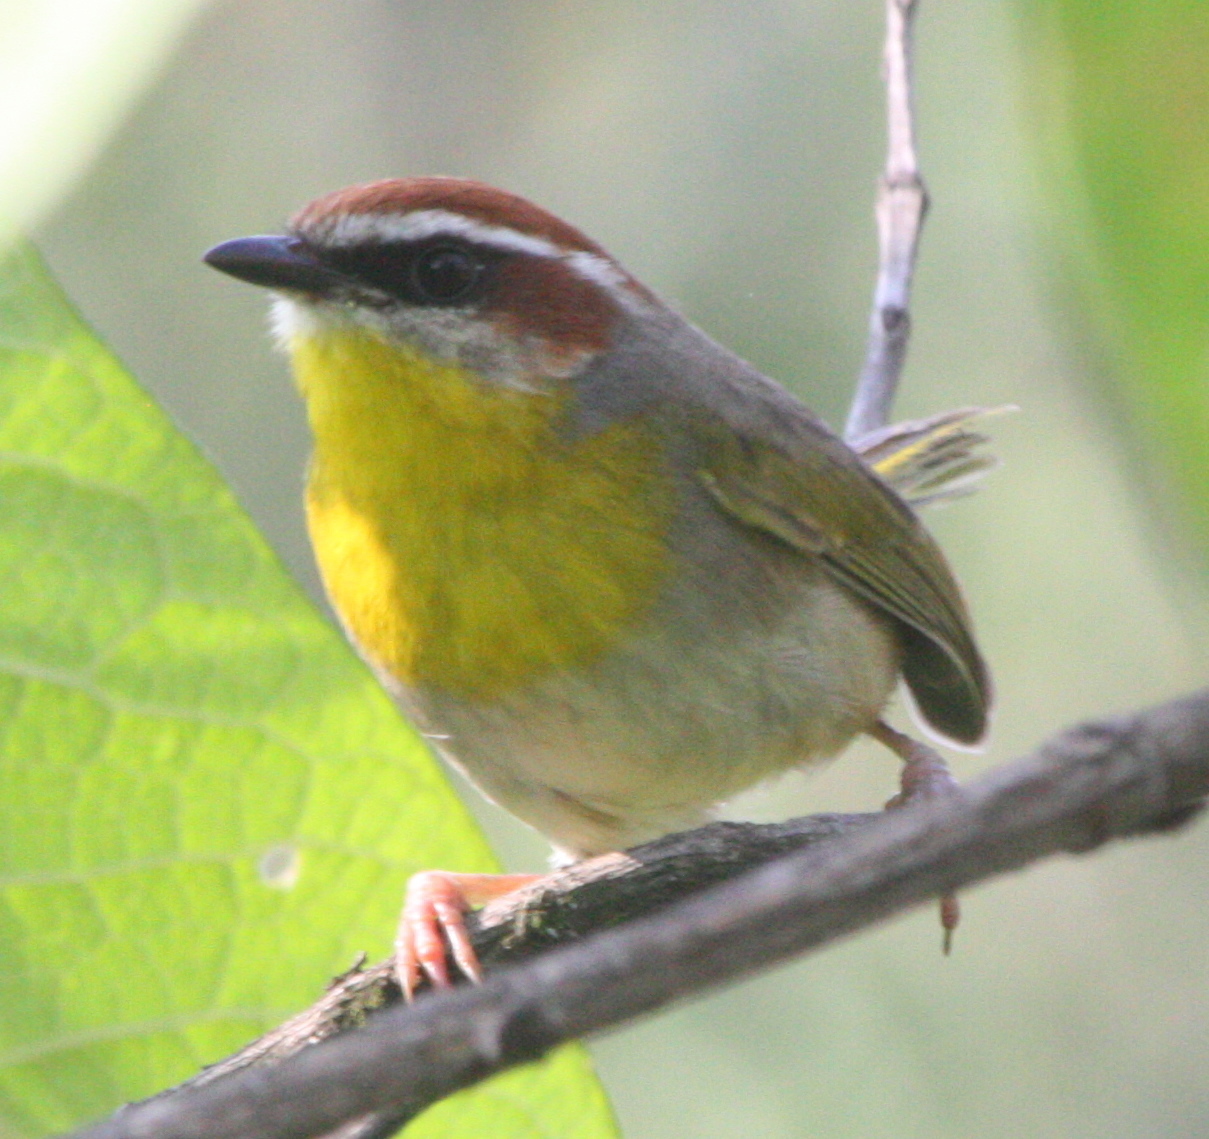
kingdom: Animalia
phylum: Chordata
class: Aves
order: Passeriformes
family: Parulidae
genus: Basileuterus
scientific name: Basileuterus rufifrons
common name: Rufous-capped warbler
